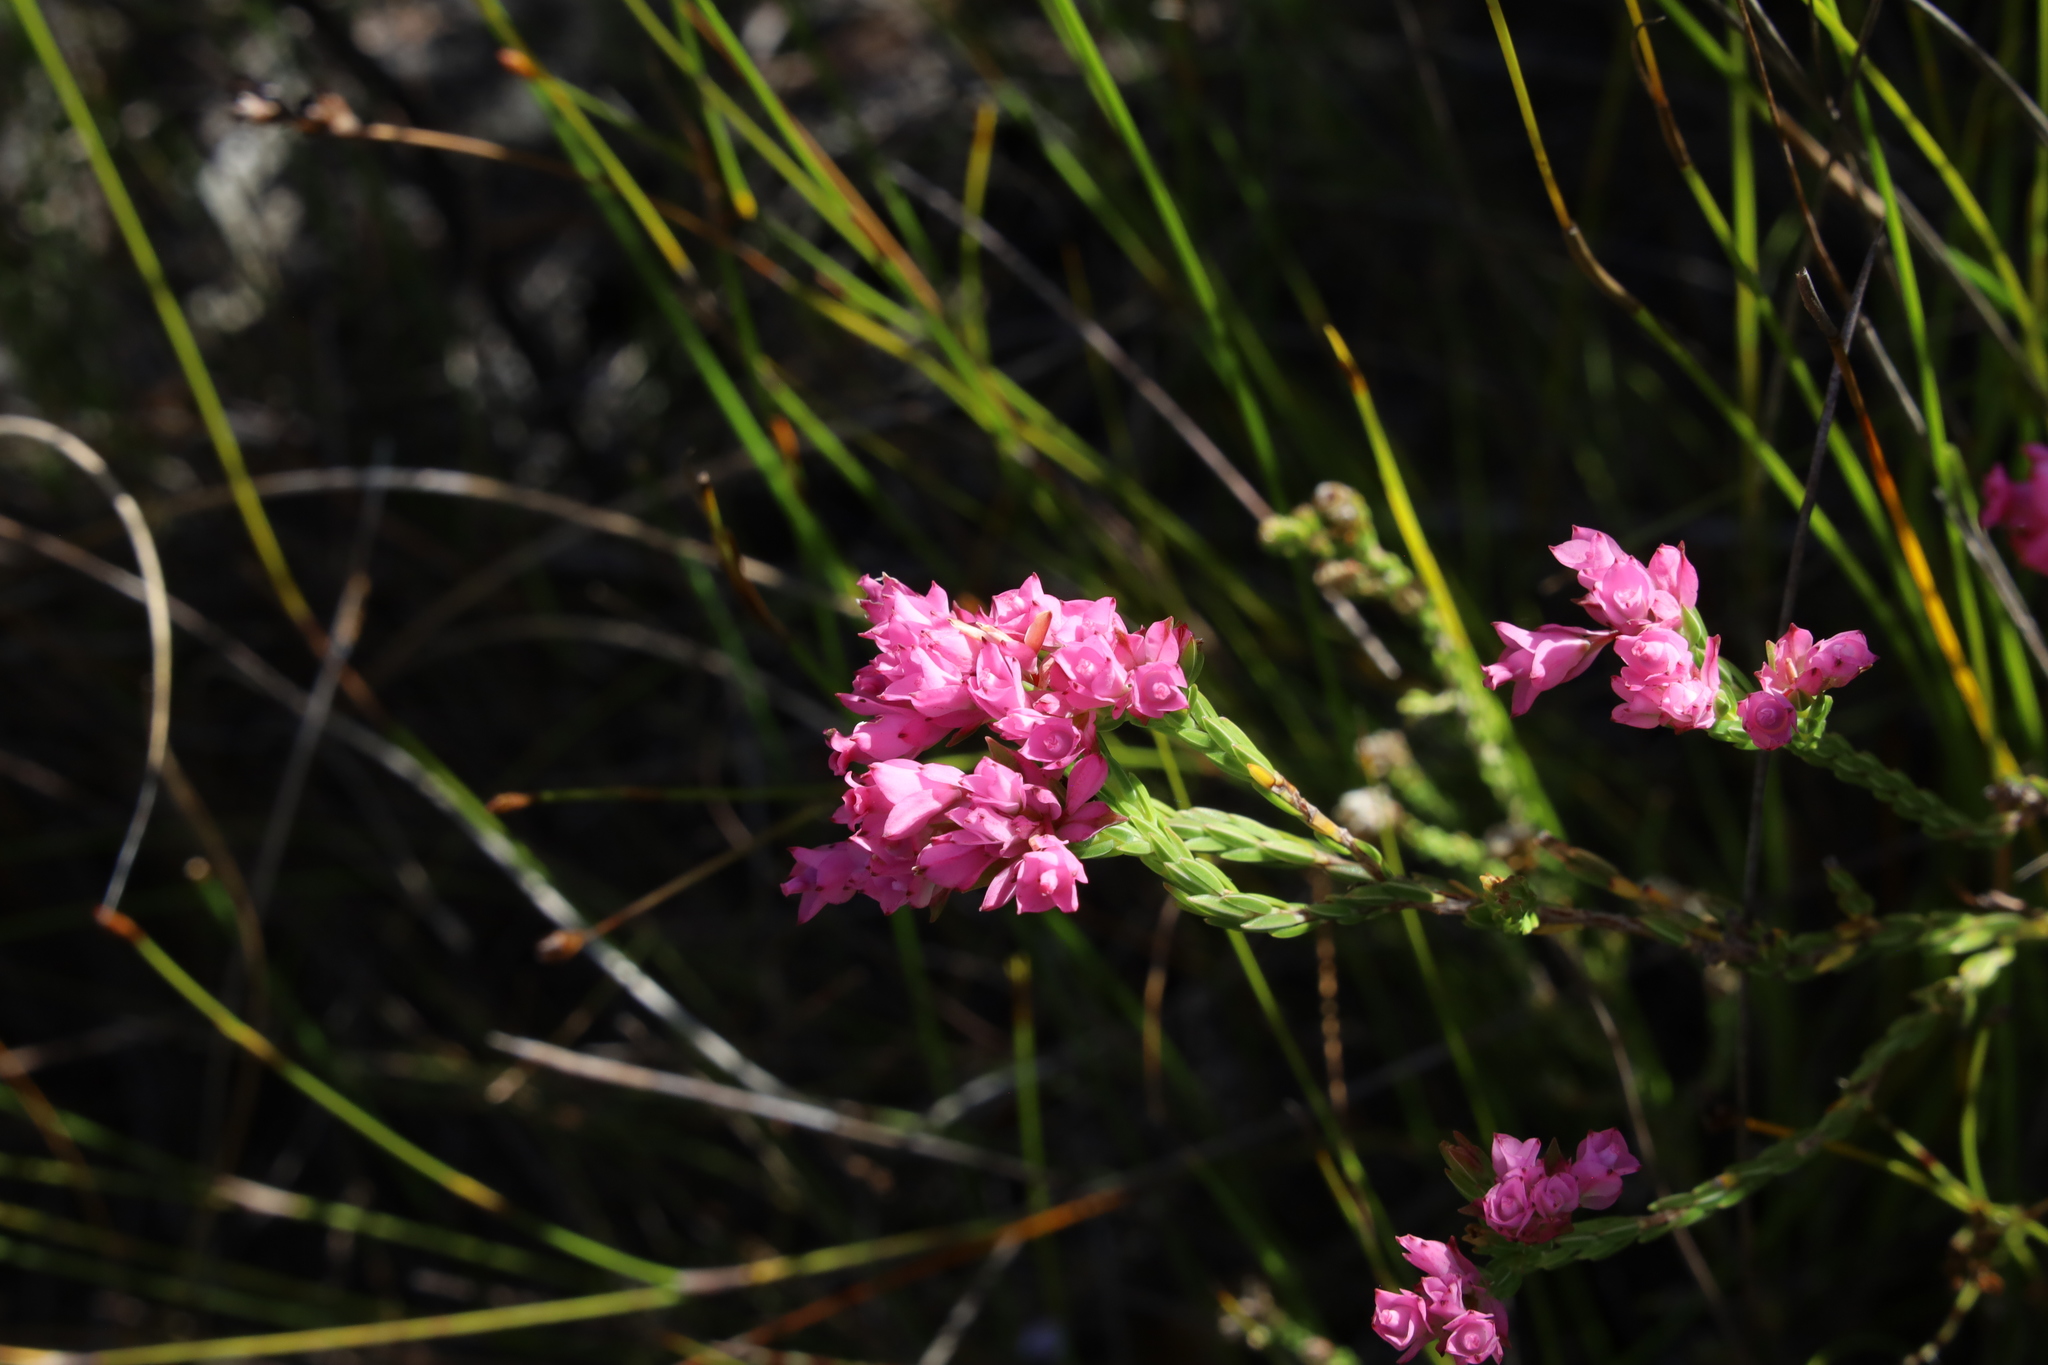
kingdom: Plantae
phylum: Tracheophyta
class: Magnoliopsida
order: Ericales
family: Ericaceae
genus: Erica
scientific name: Erica corifolia
